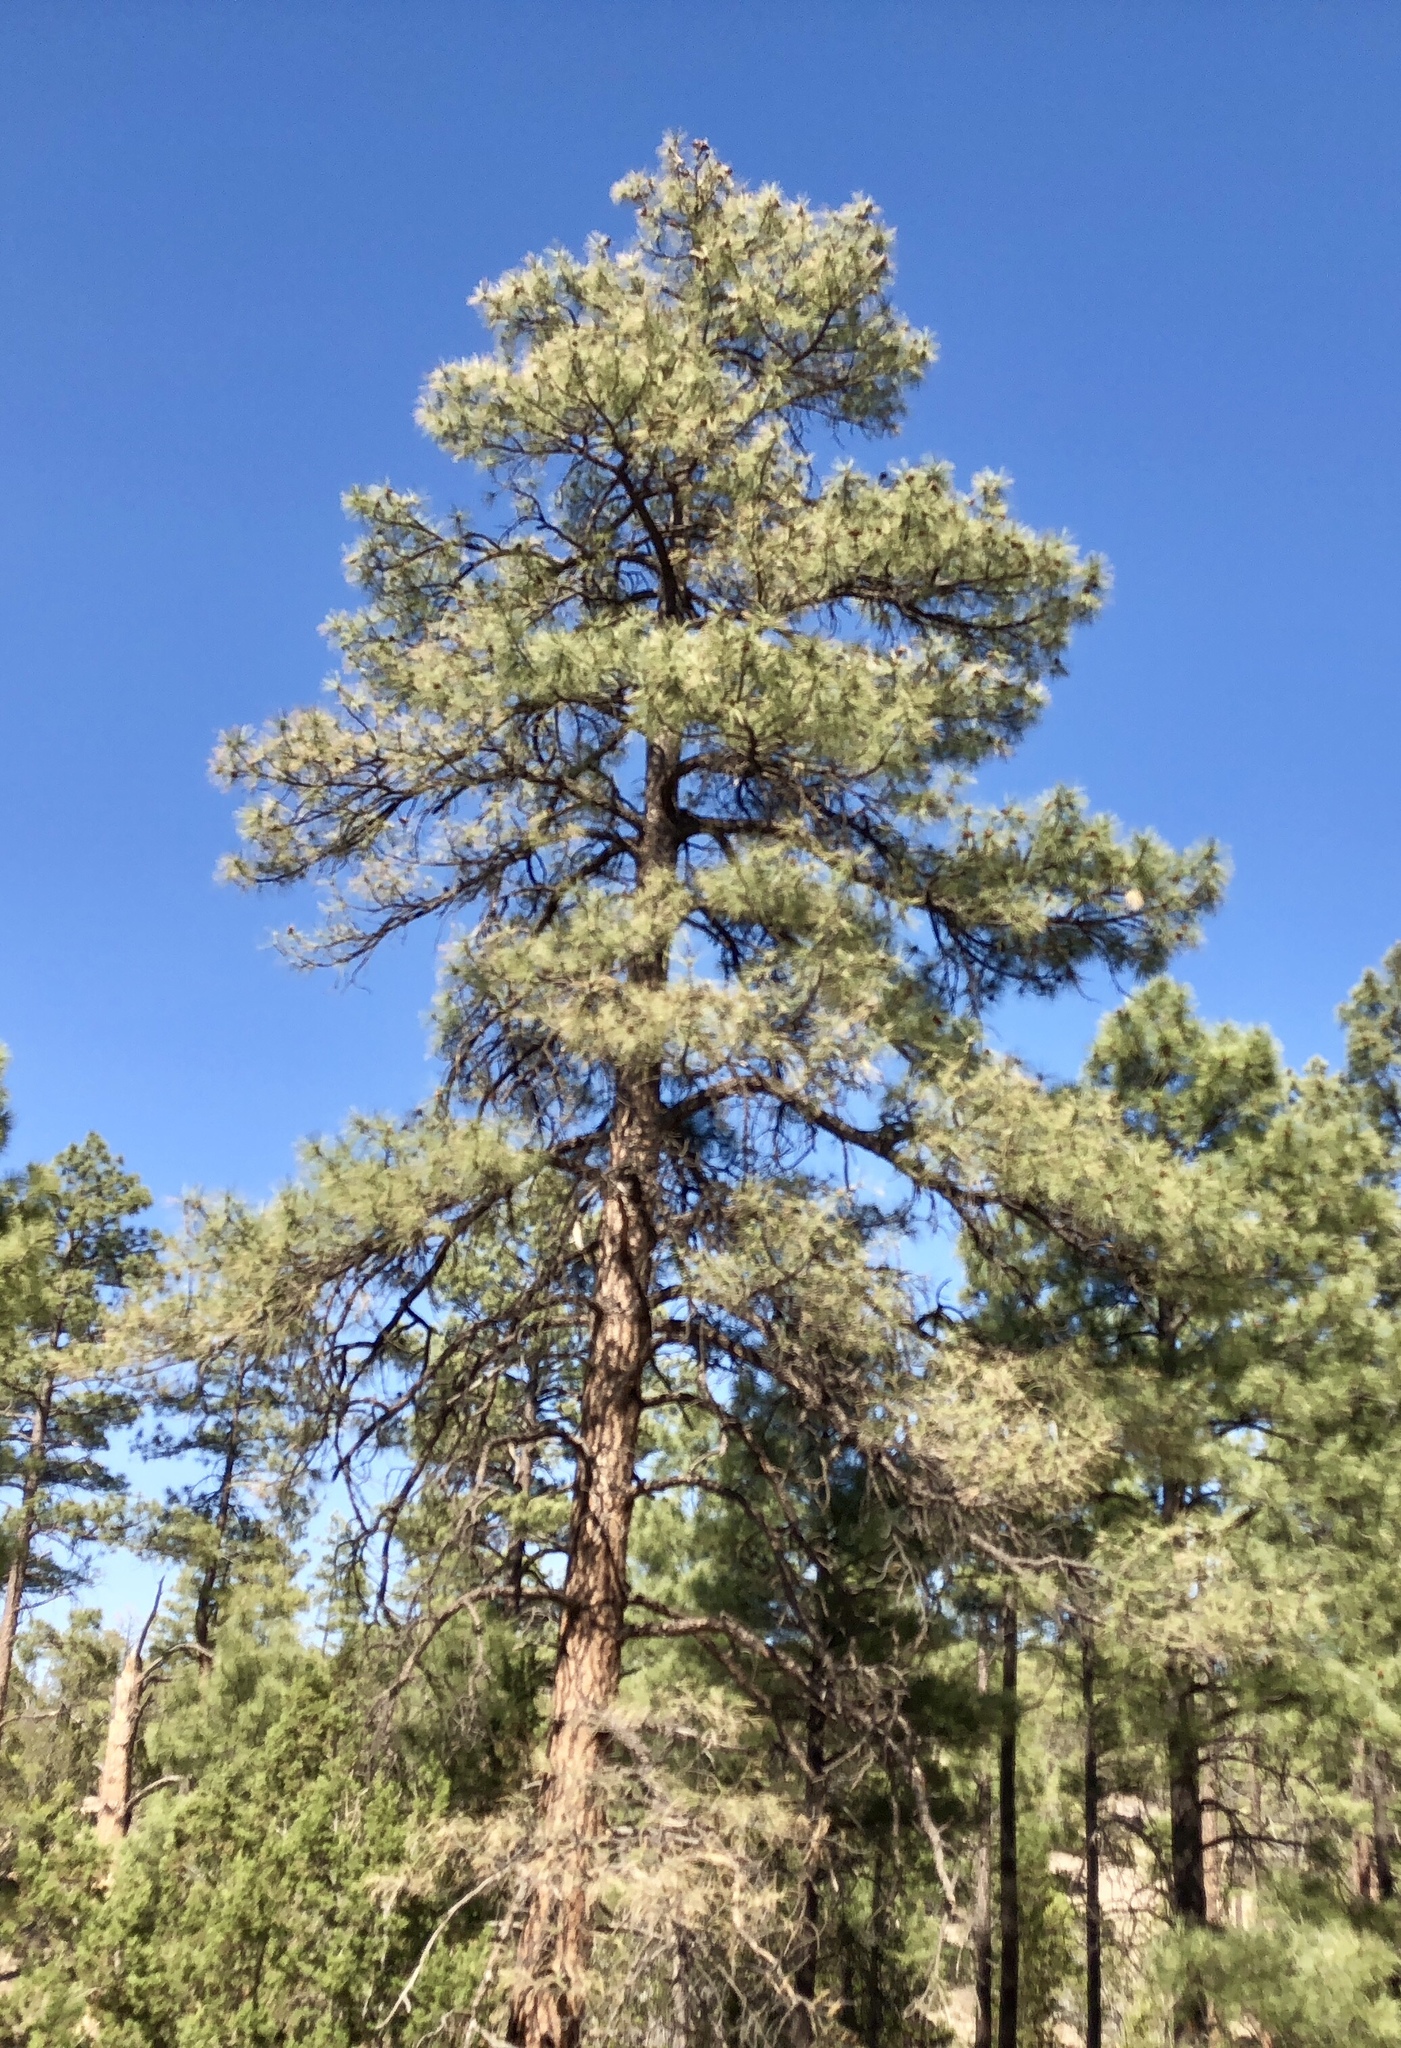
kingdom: Plantae
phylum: Tracheophyta
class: Pinopsida
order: Pinales
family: Pinaceae
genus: Pinus
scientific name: Pinus ponderosa
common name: Western yellow-pine
